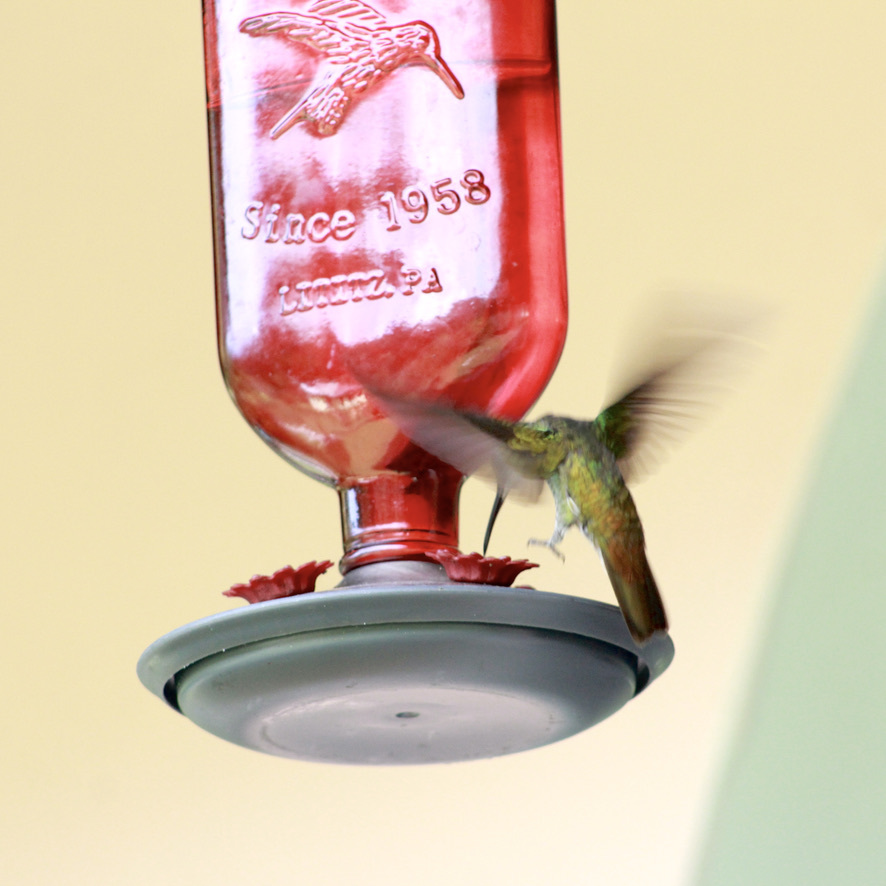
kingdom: Animalia
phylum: Chordata
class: Aves
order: Apodiformes
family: Trochilidae
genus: Chrysuronia
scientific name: Chrysuronia brevirostris
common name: White-chested emerald
